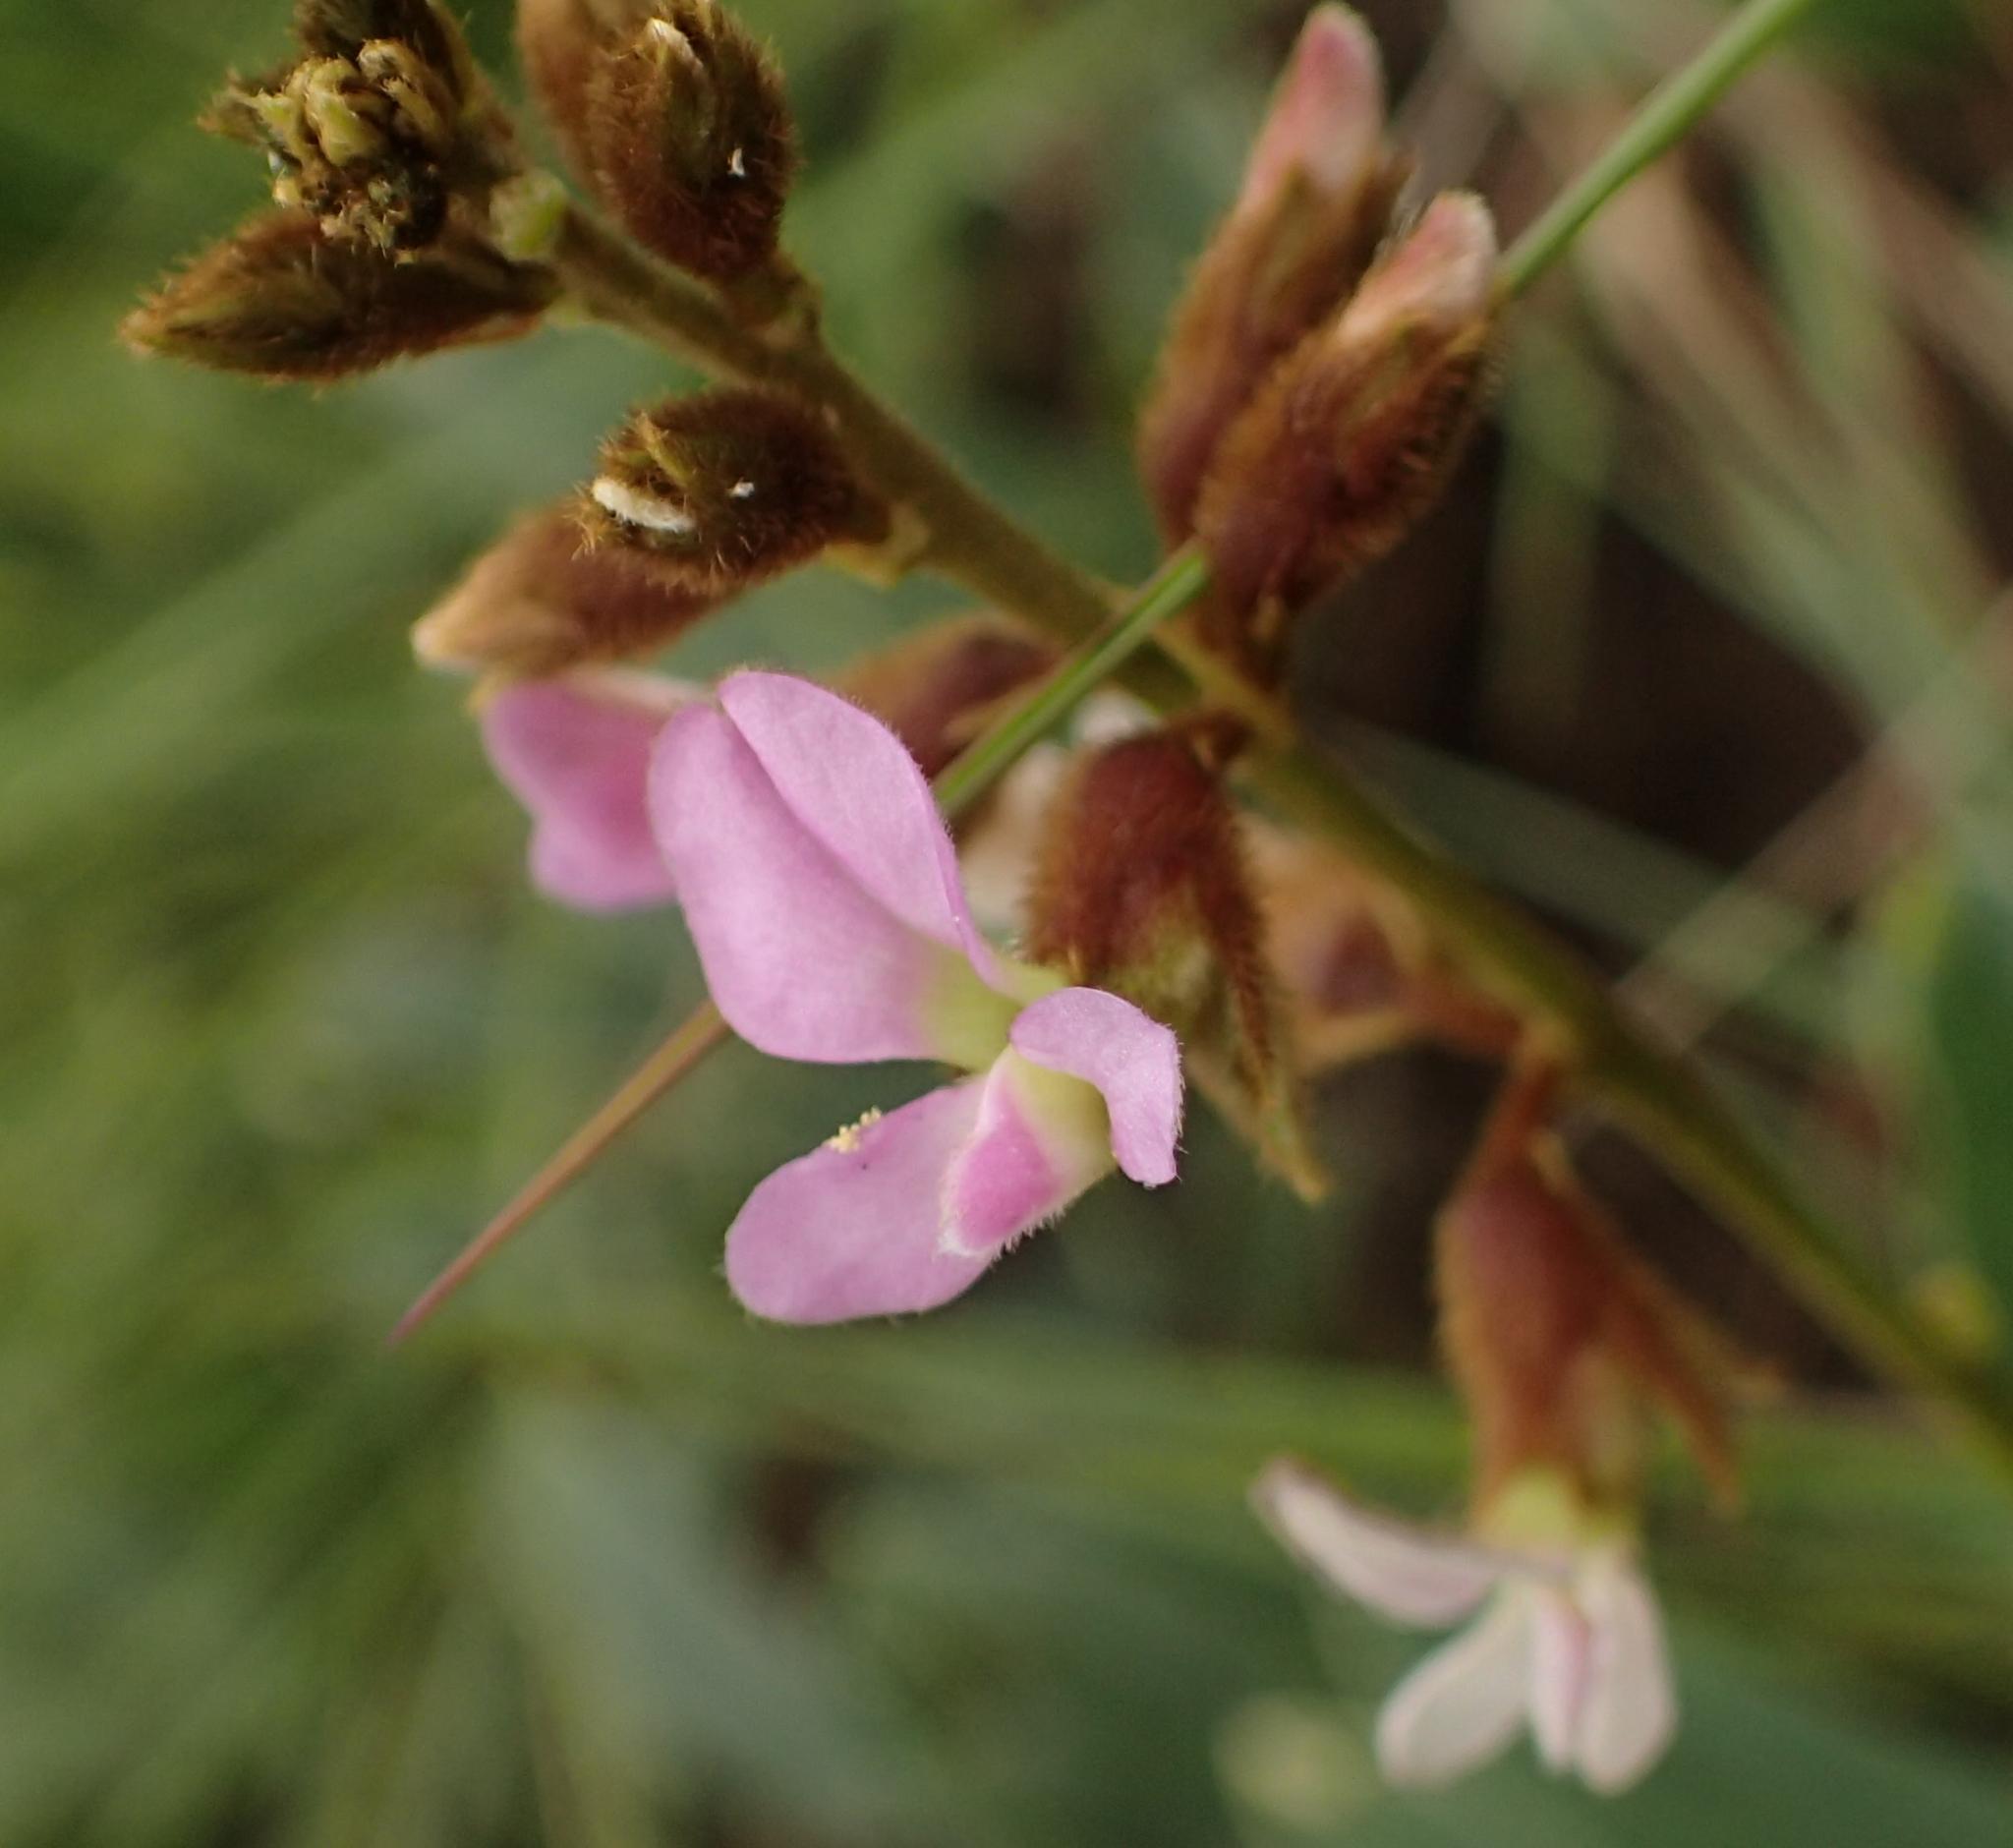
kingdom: Plantae
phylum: Tracheophyta
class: Magnoliopsida
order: Fabales
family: Fabaceae
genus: Ophrestia
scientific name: Ophrestia oblongifolia
